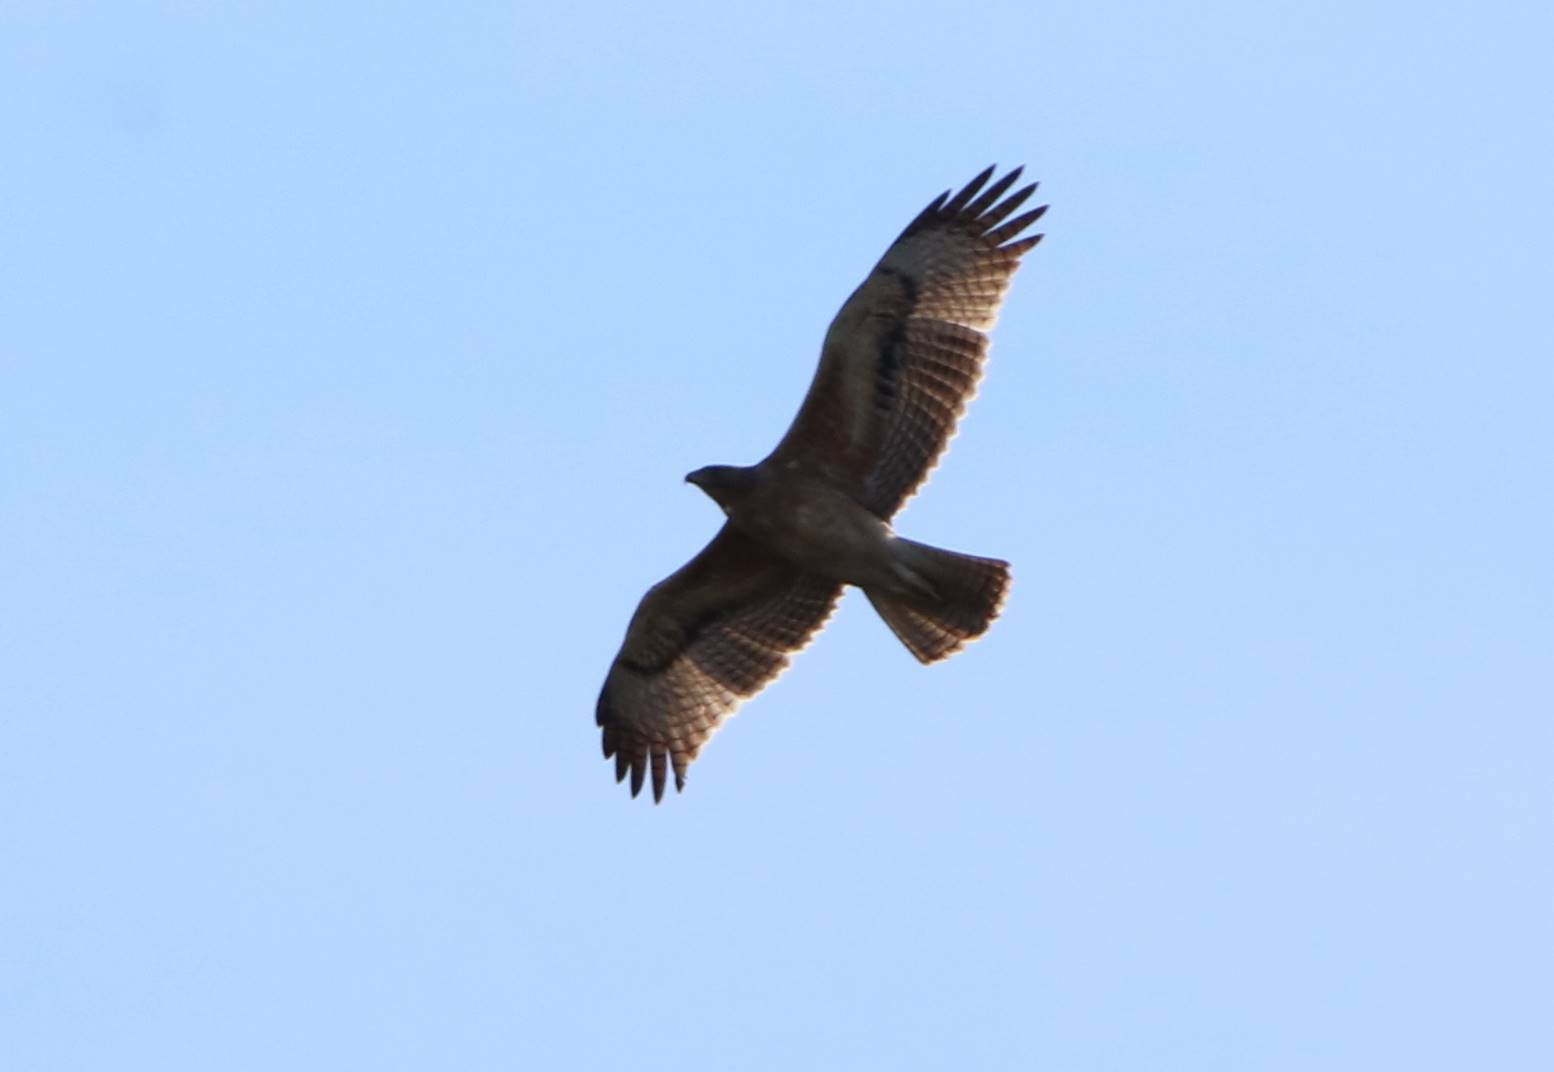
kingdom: Animalia
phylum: Chordata
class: Aves
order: Accipitriformes
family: Accipitridae
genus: Aquila
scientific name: Aquila fasciata
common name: Bonelli's eagle
